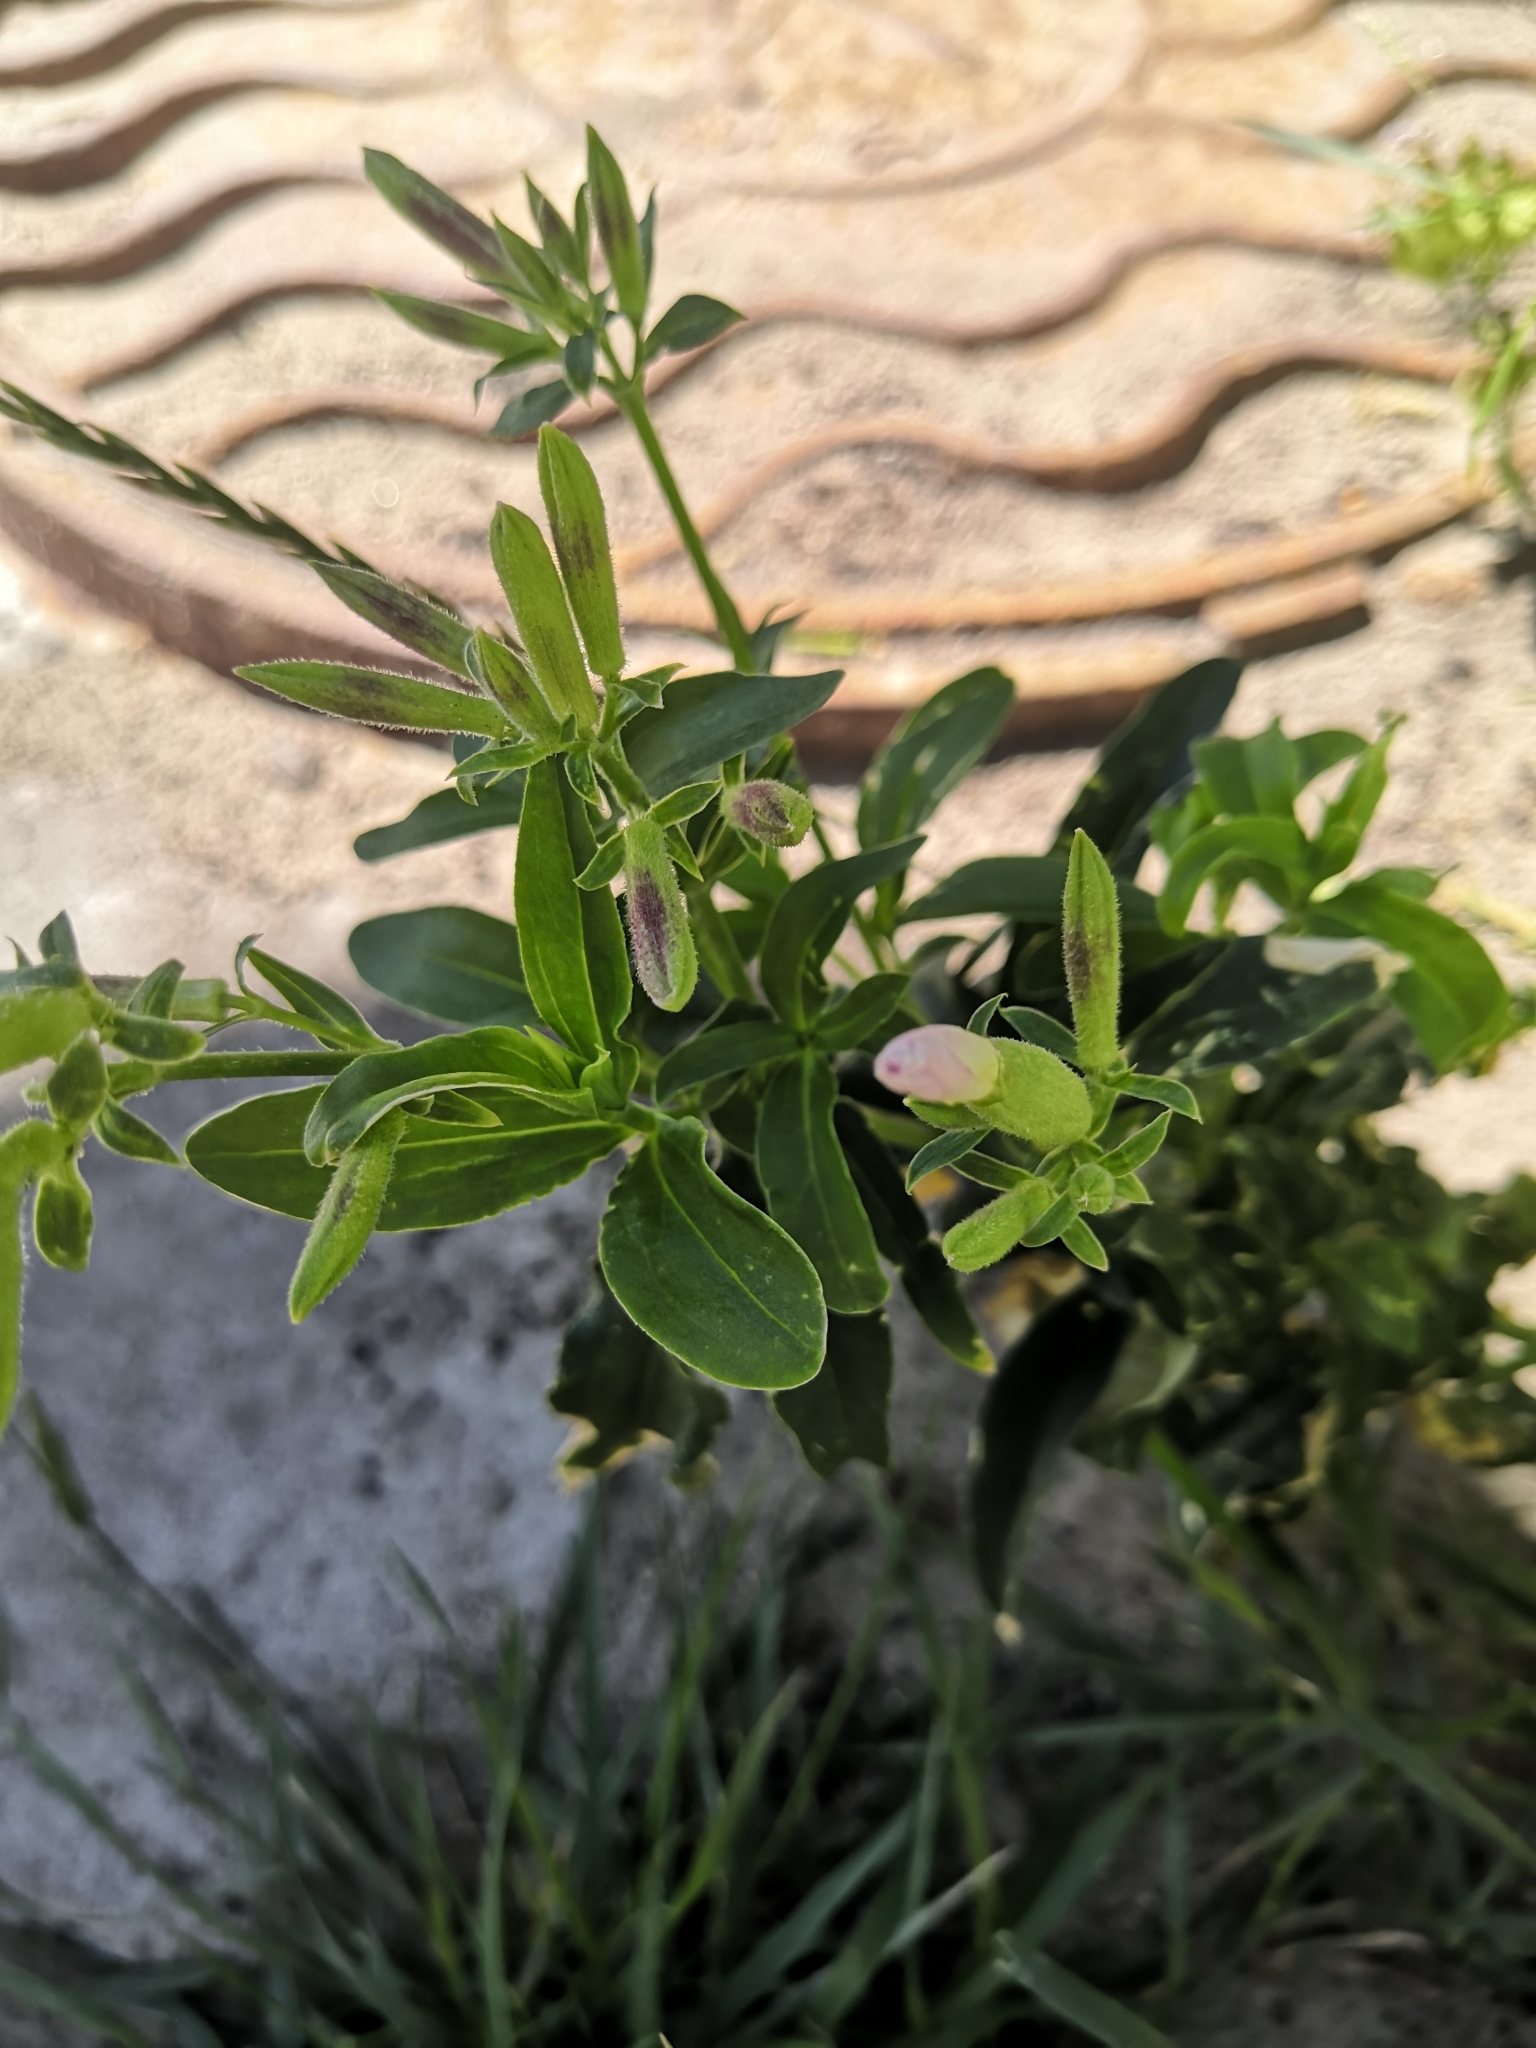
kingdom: Plantae
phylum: Tracheophyta
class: Magnoliopsida
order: Caryophyllales
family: Caryophyllaceae
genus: Saponaria
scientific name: Saponaria officinalis
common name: Soapwort
